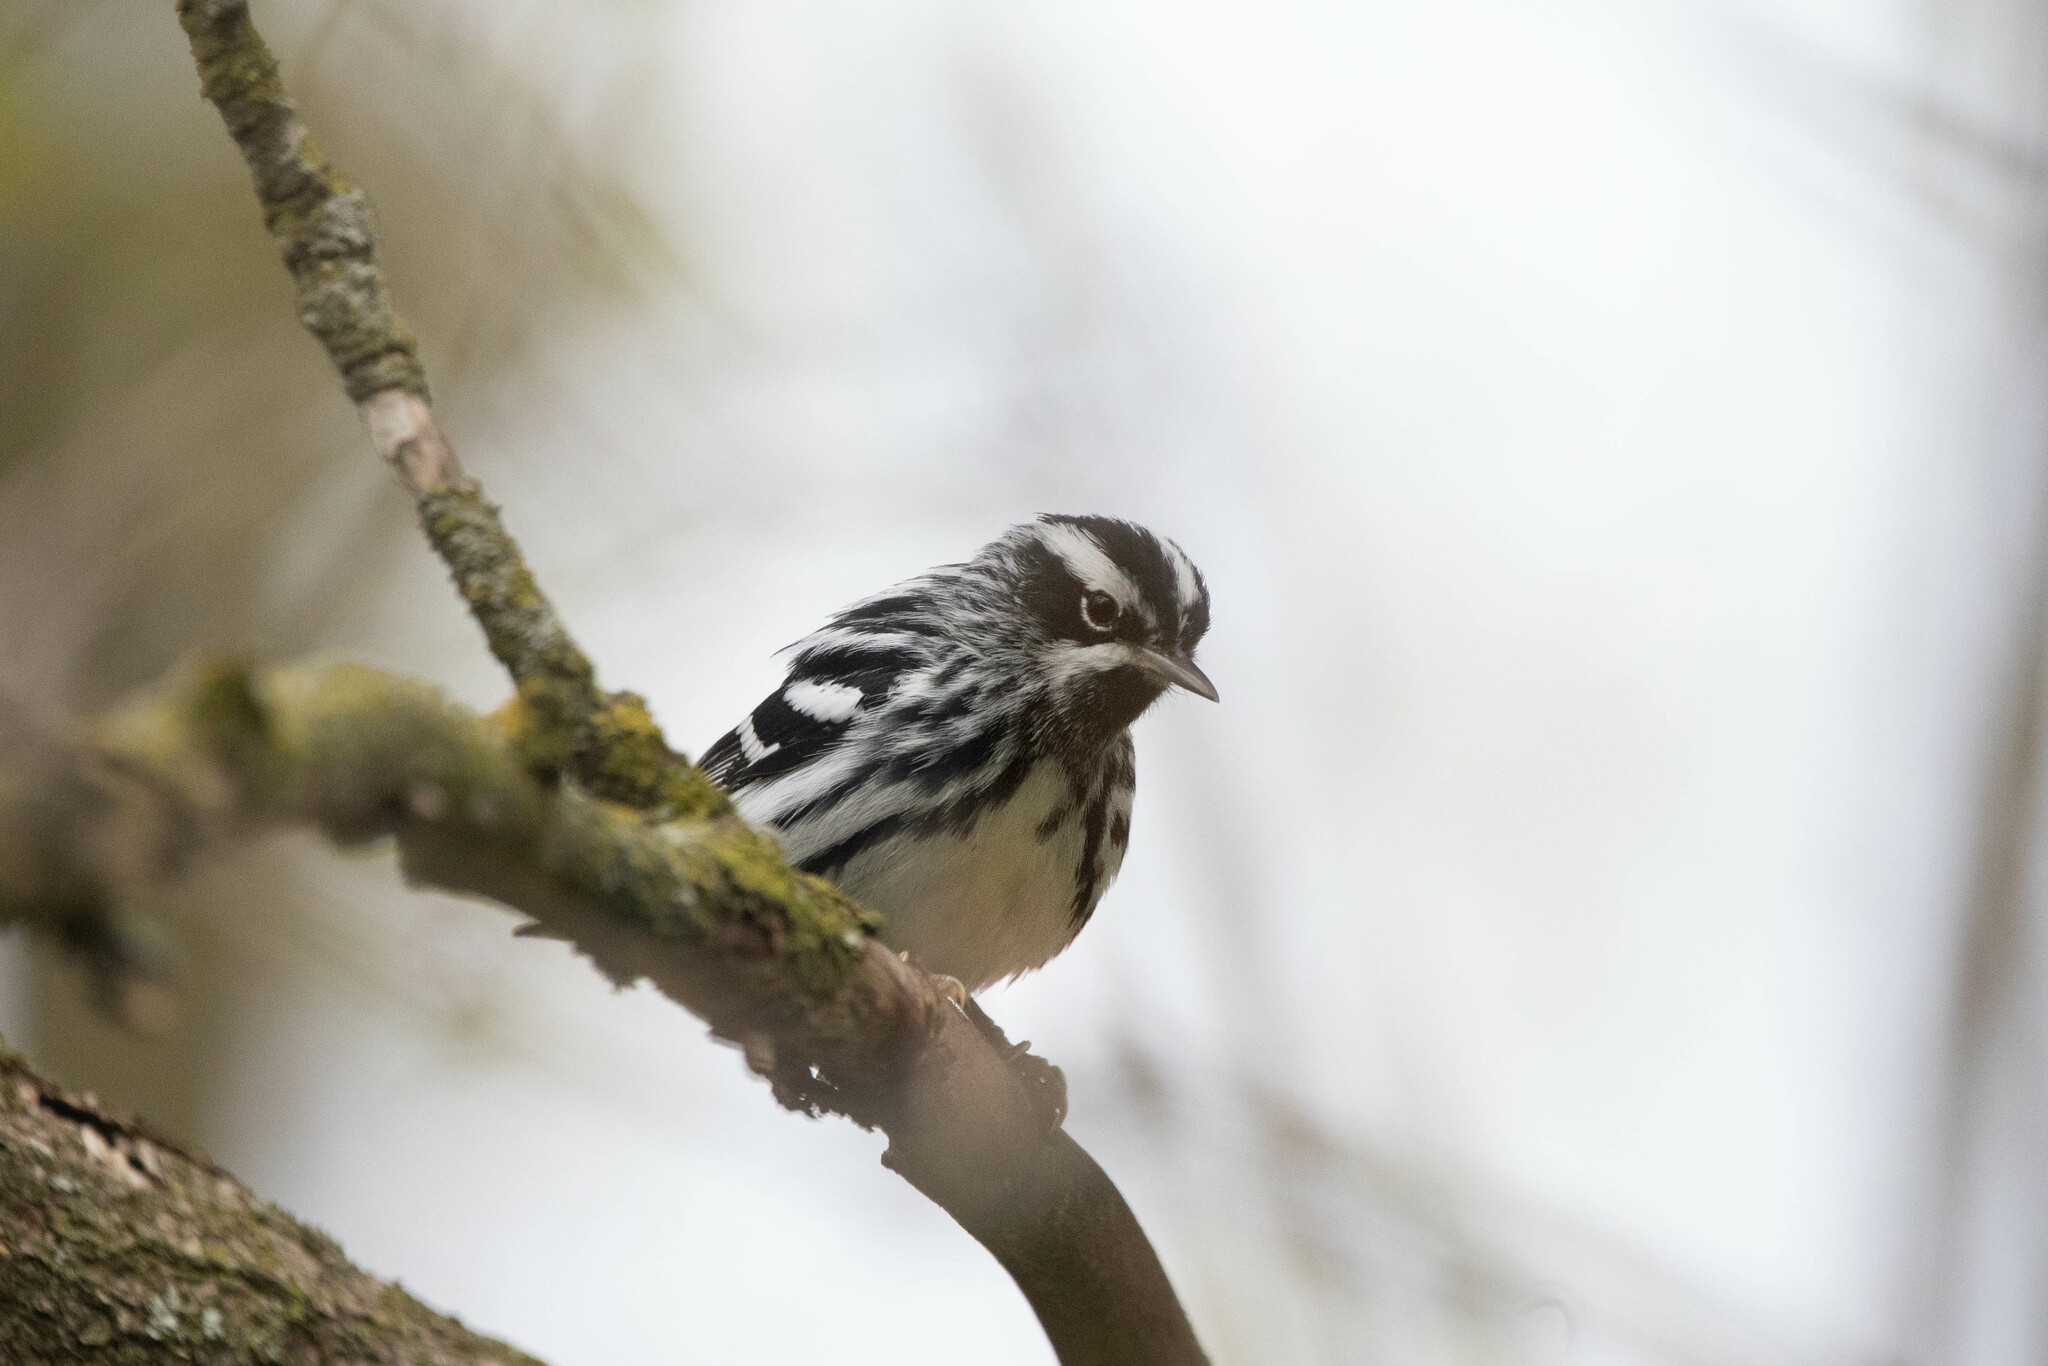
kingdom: Animalia
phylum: Chordata
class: Aves
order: Passeriformes
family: Parulidae
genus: Mniotilta
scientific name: Mniotilta varia
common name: Black-and-white warbler
